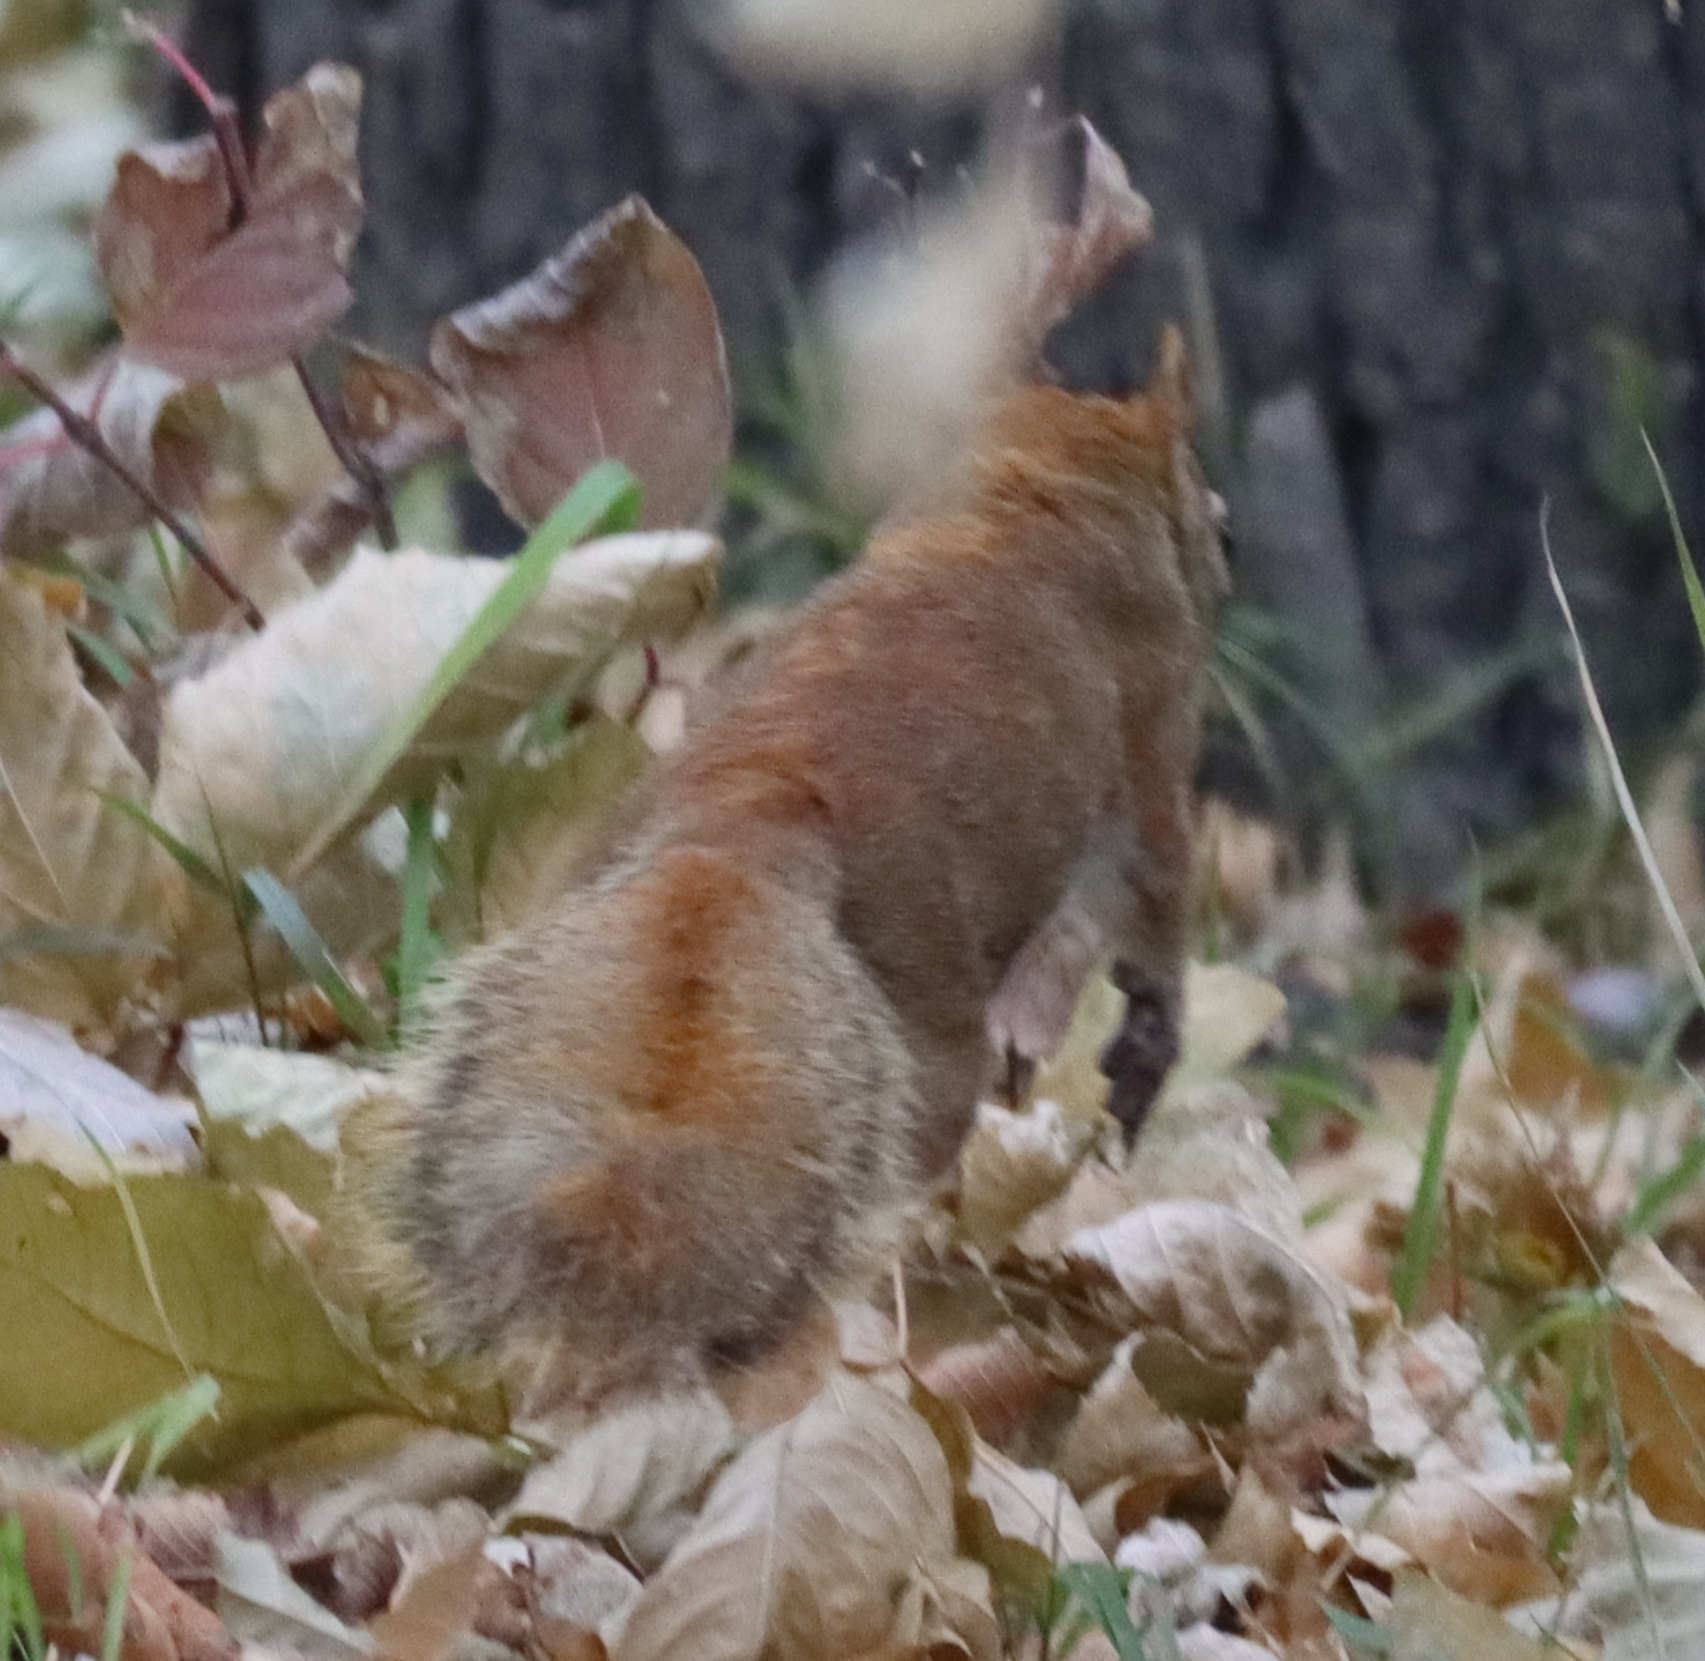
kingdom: Animalia
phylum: Chordata
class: Mammalia
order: Rodentia
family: Sciuridae
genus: Tamiasciurus
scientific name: Tamiasciurus hudsonicus
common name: Red squirrel
